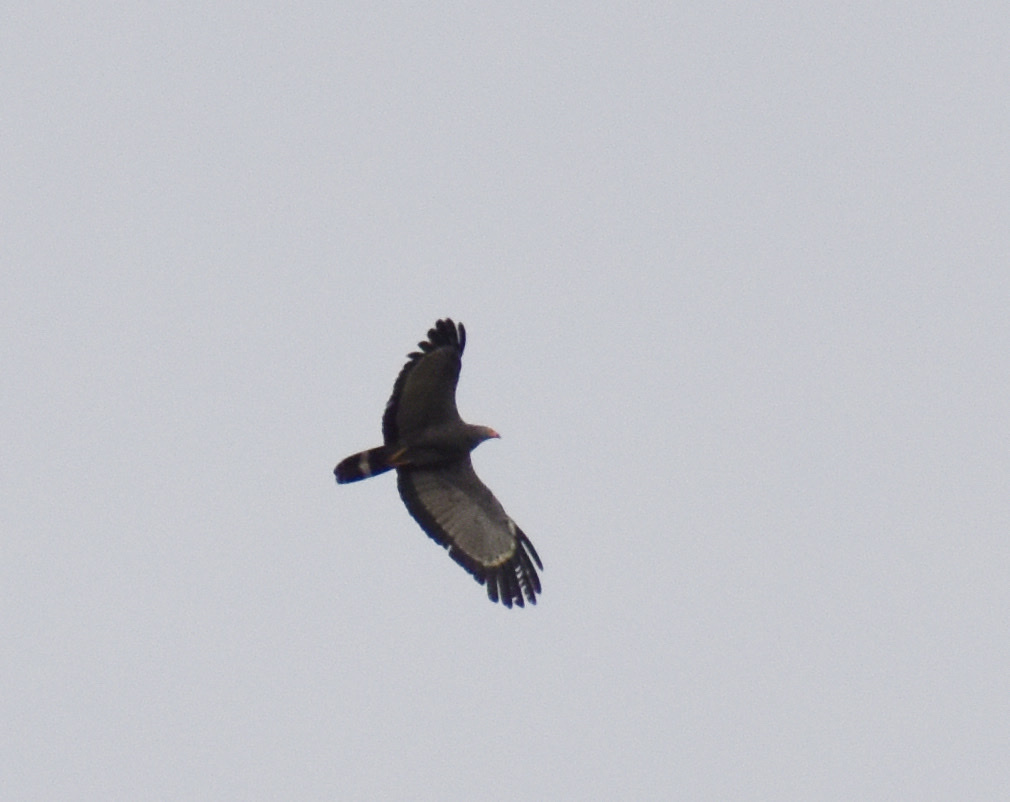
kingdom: Animalia
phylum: Chordata
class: Aves
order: Accipitriformes
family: Accipitridae
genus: Polyboroides
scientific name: Polyboroides typus
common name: African harrier-hawk
